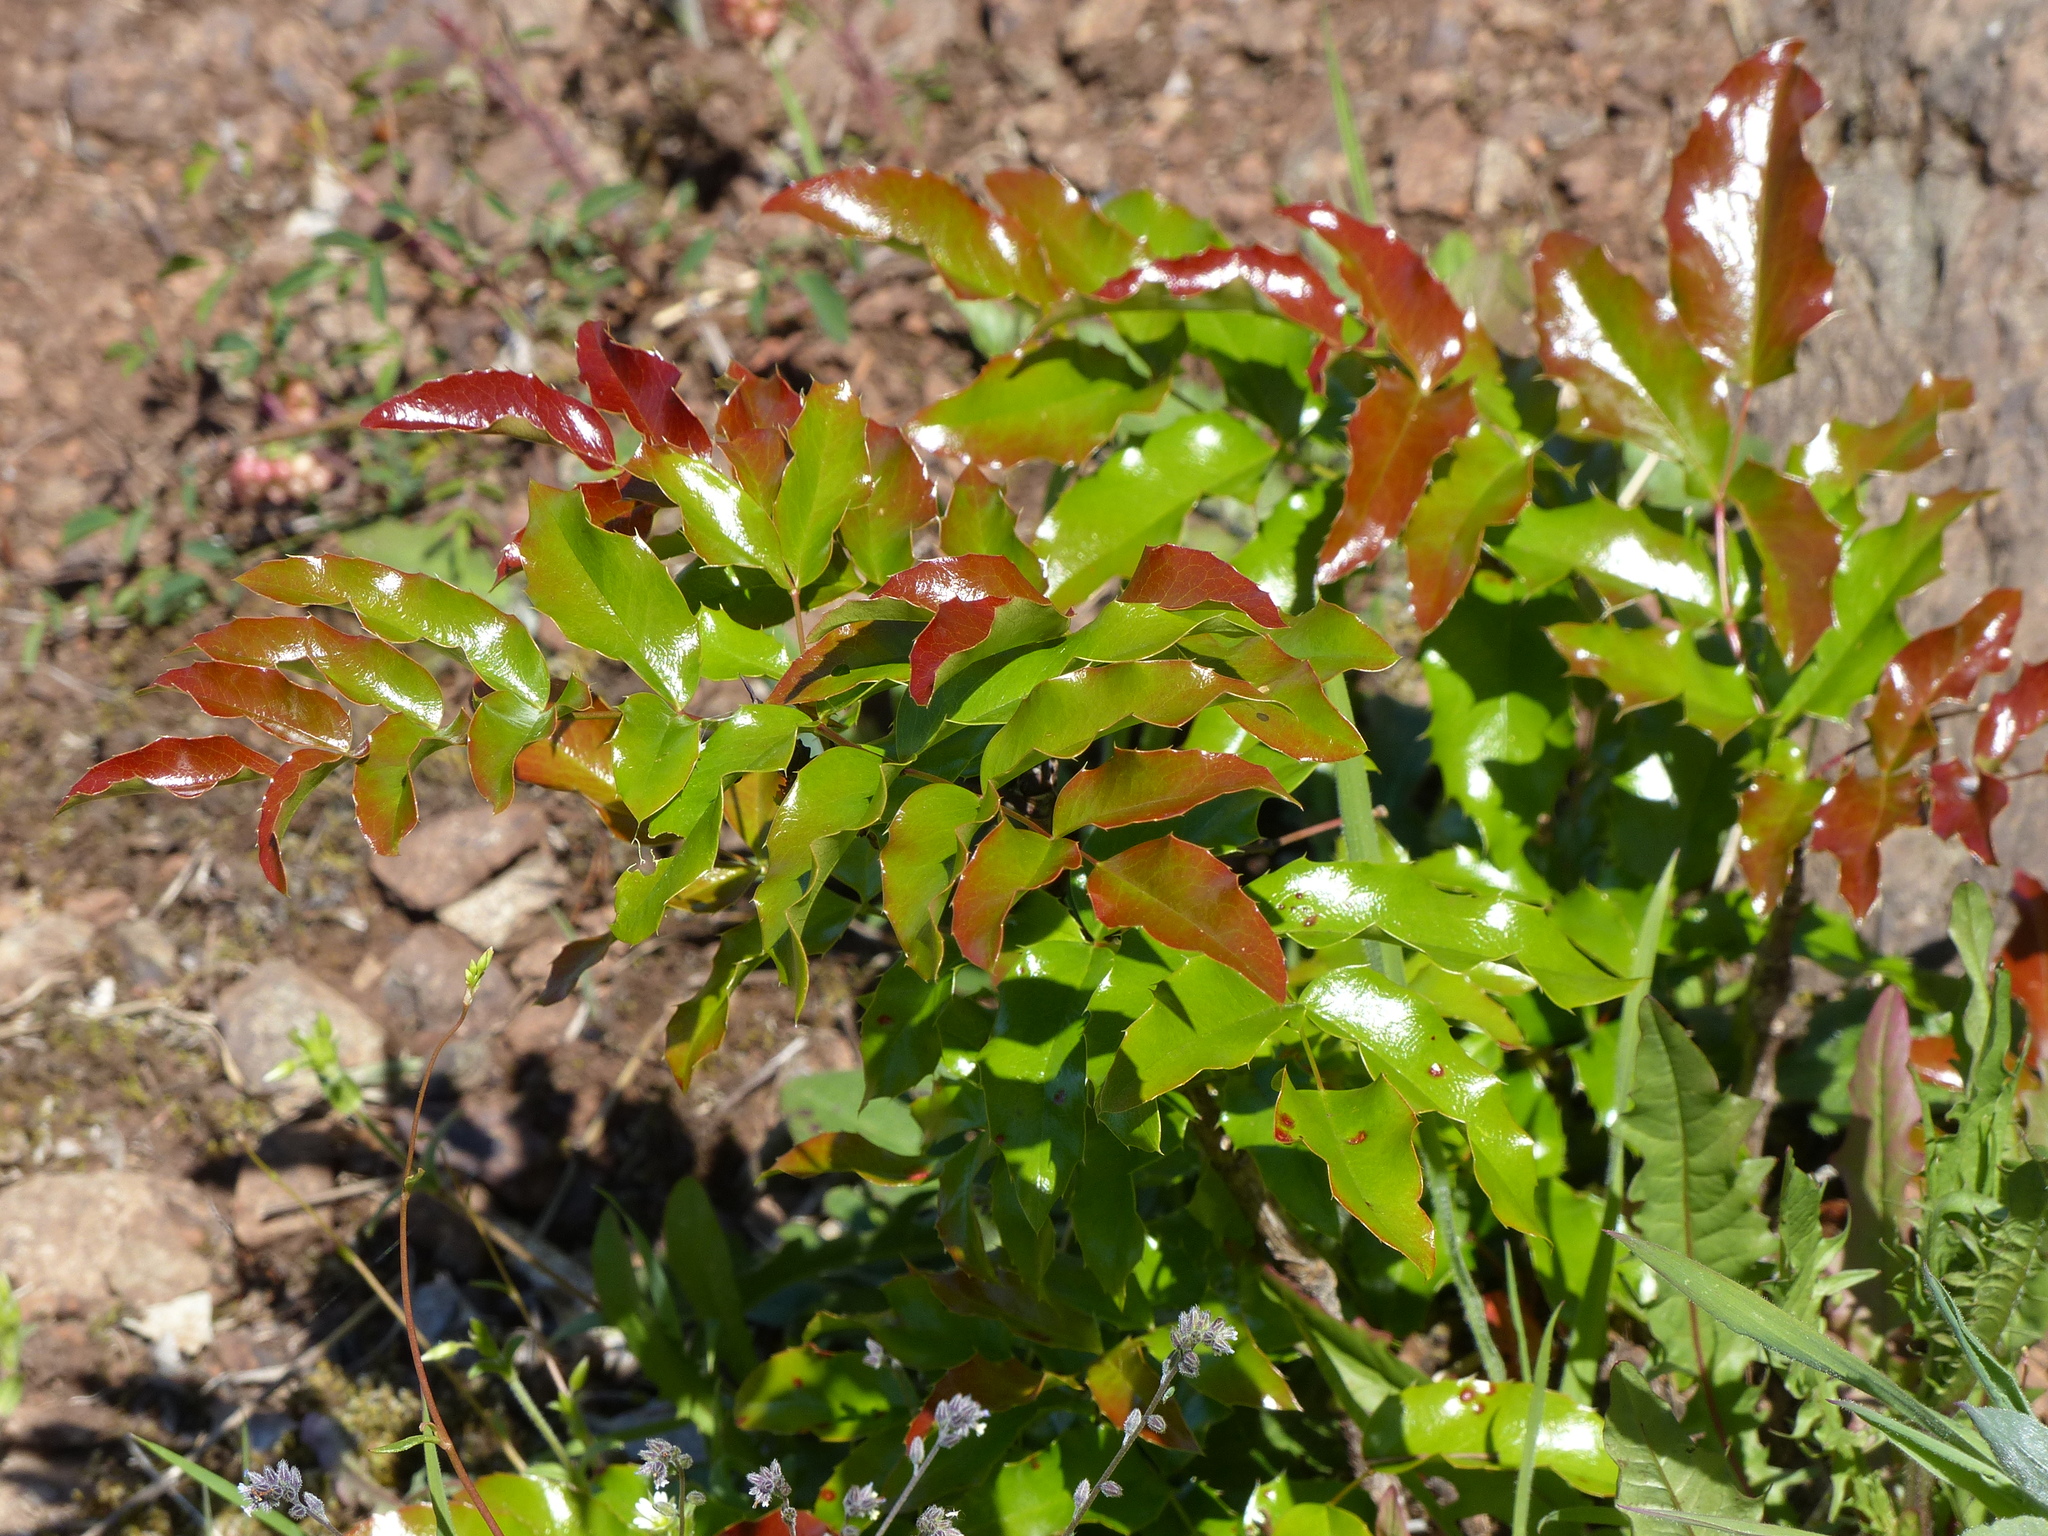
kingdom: Plantae
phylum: Tracheophyta
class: Magnoliopsida
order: Ranunculales
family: Berberidaceae
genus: Mahonia
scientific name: Mahonia aquifolium
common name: Oregon-grape
